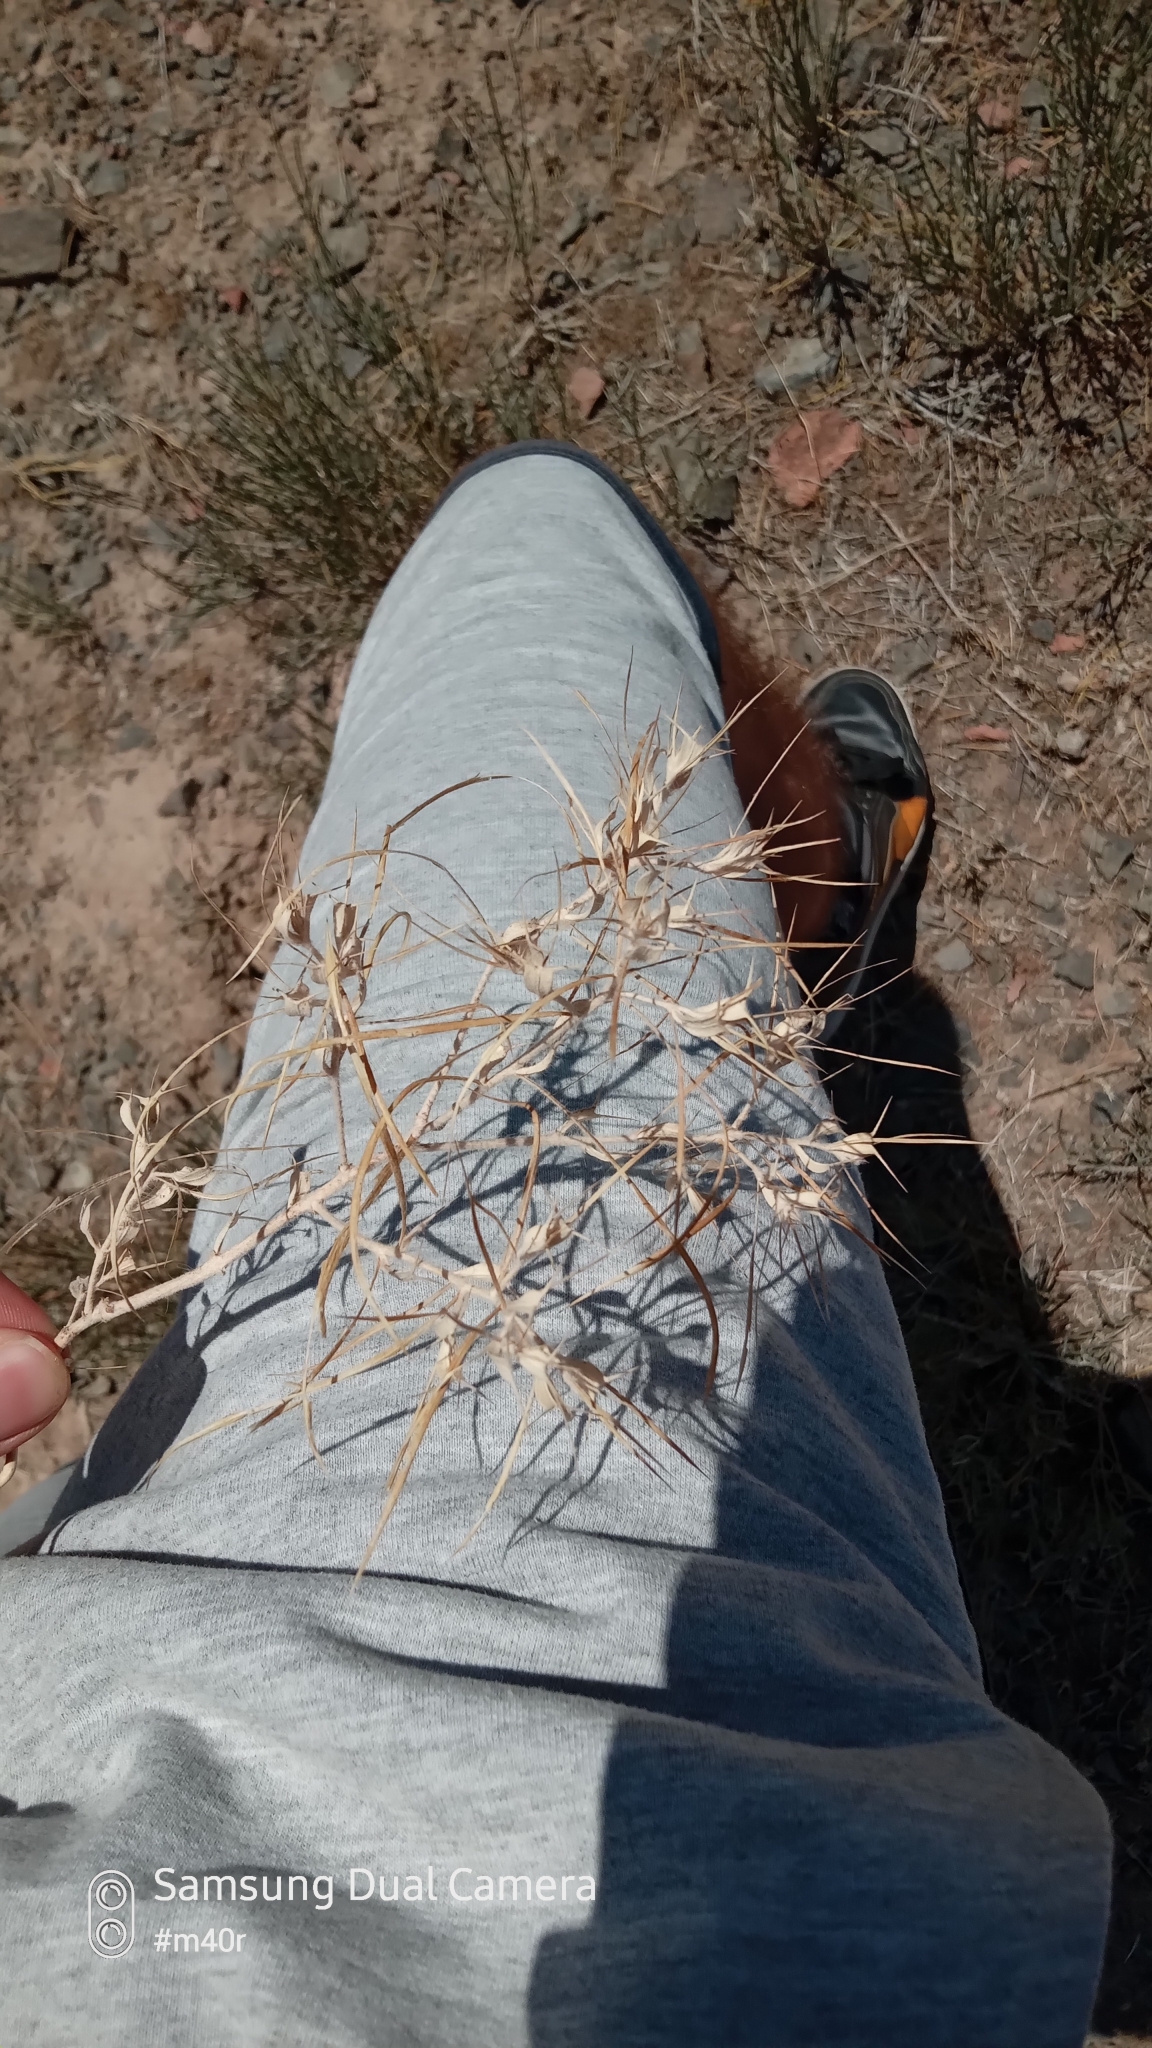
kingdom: Plantae
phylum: Tracheophyta
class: Magnoliopsida
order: Caryophyllales
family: Amaranthaceae
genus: Ceratocarpus
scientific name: Ceratocarpus arenarius
